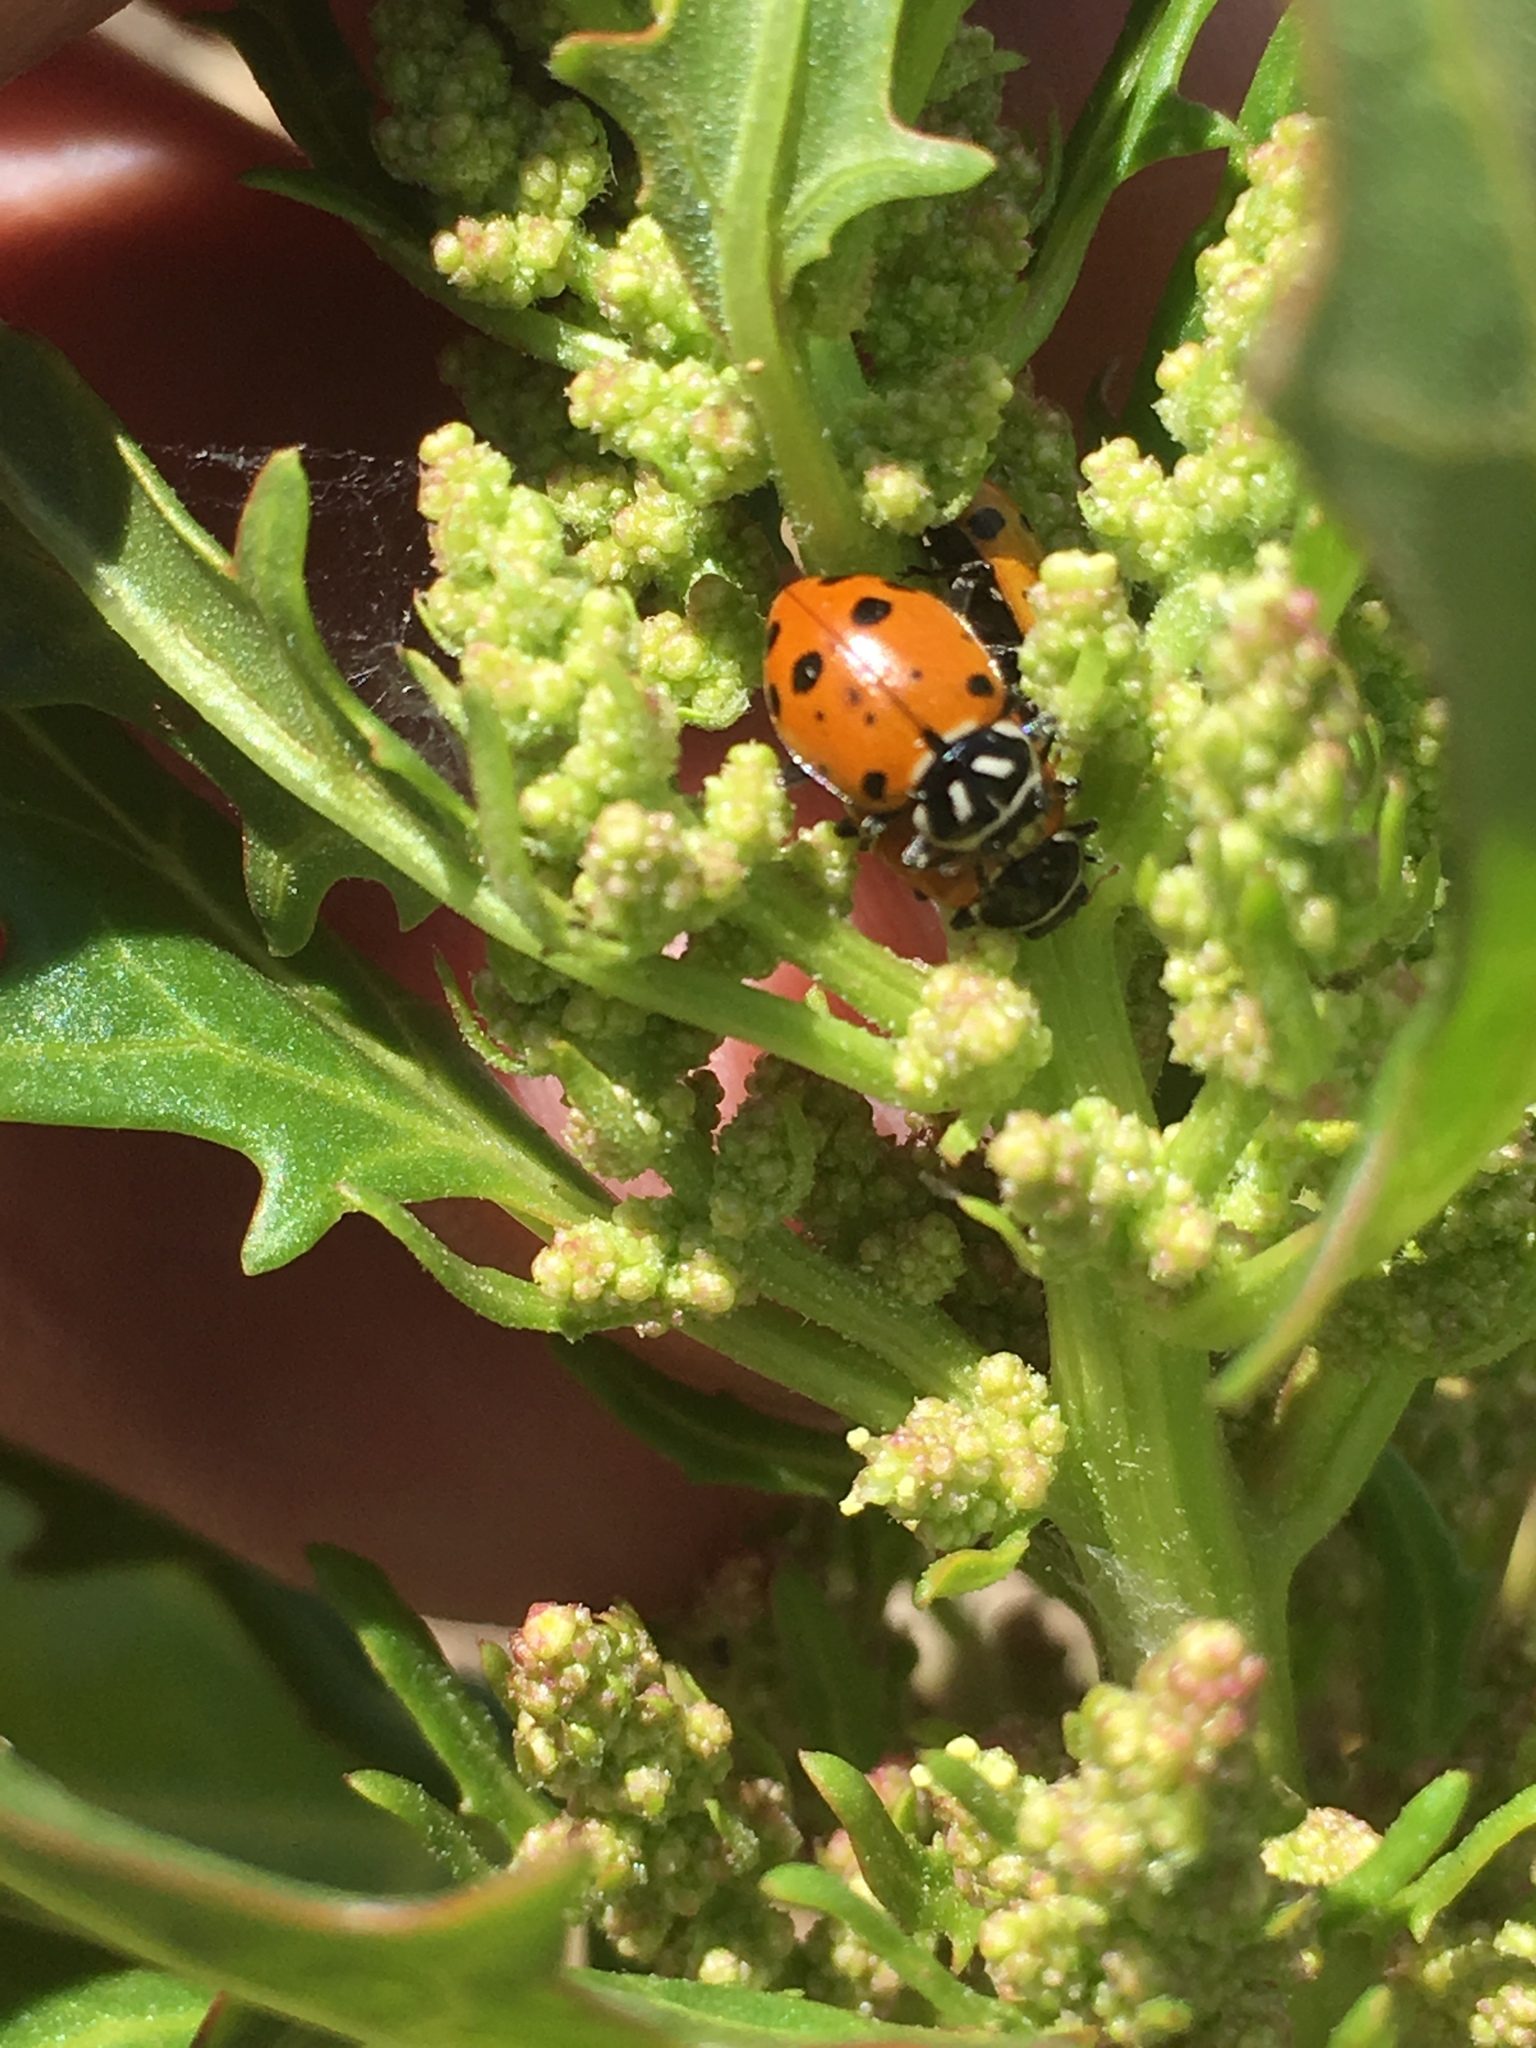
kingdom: Animalia
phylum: Arthropoda
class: Insecta
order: Coleoptera
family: Coccinellidae
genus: Hippodamia
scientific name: Hippodamia convergens
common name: Convergent lady beetle
